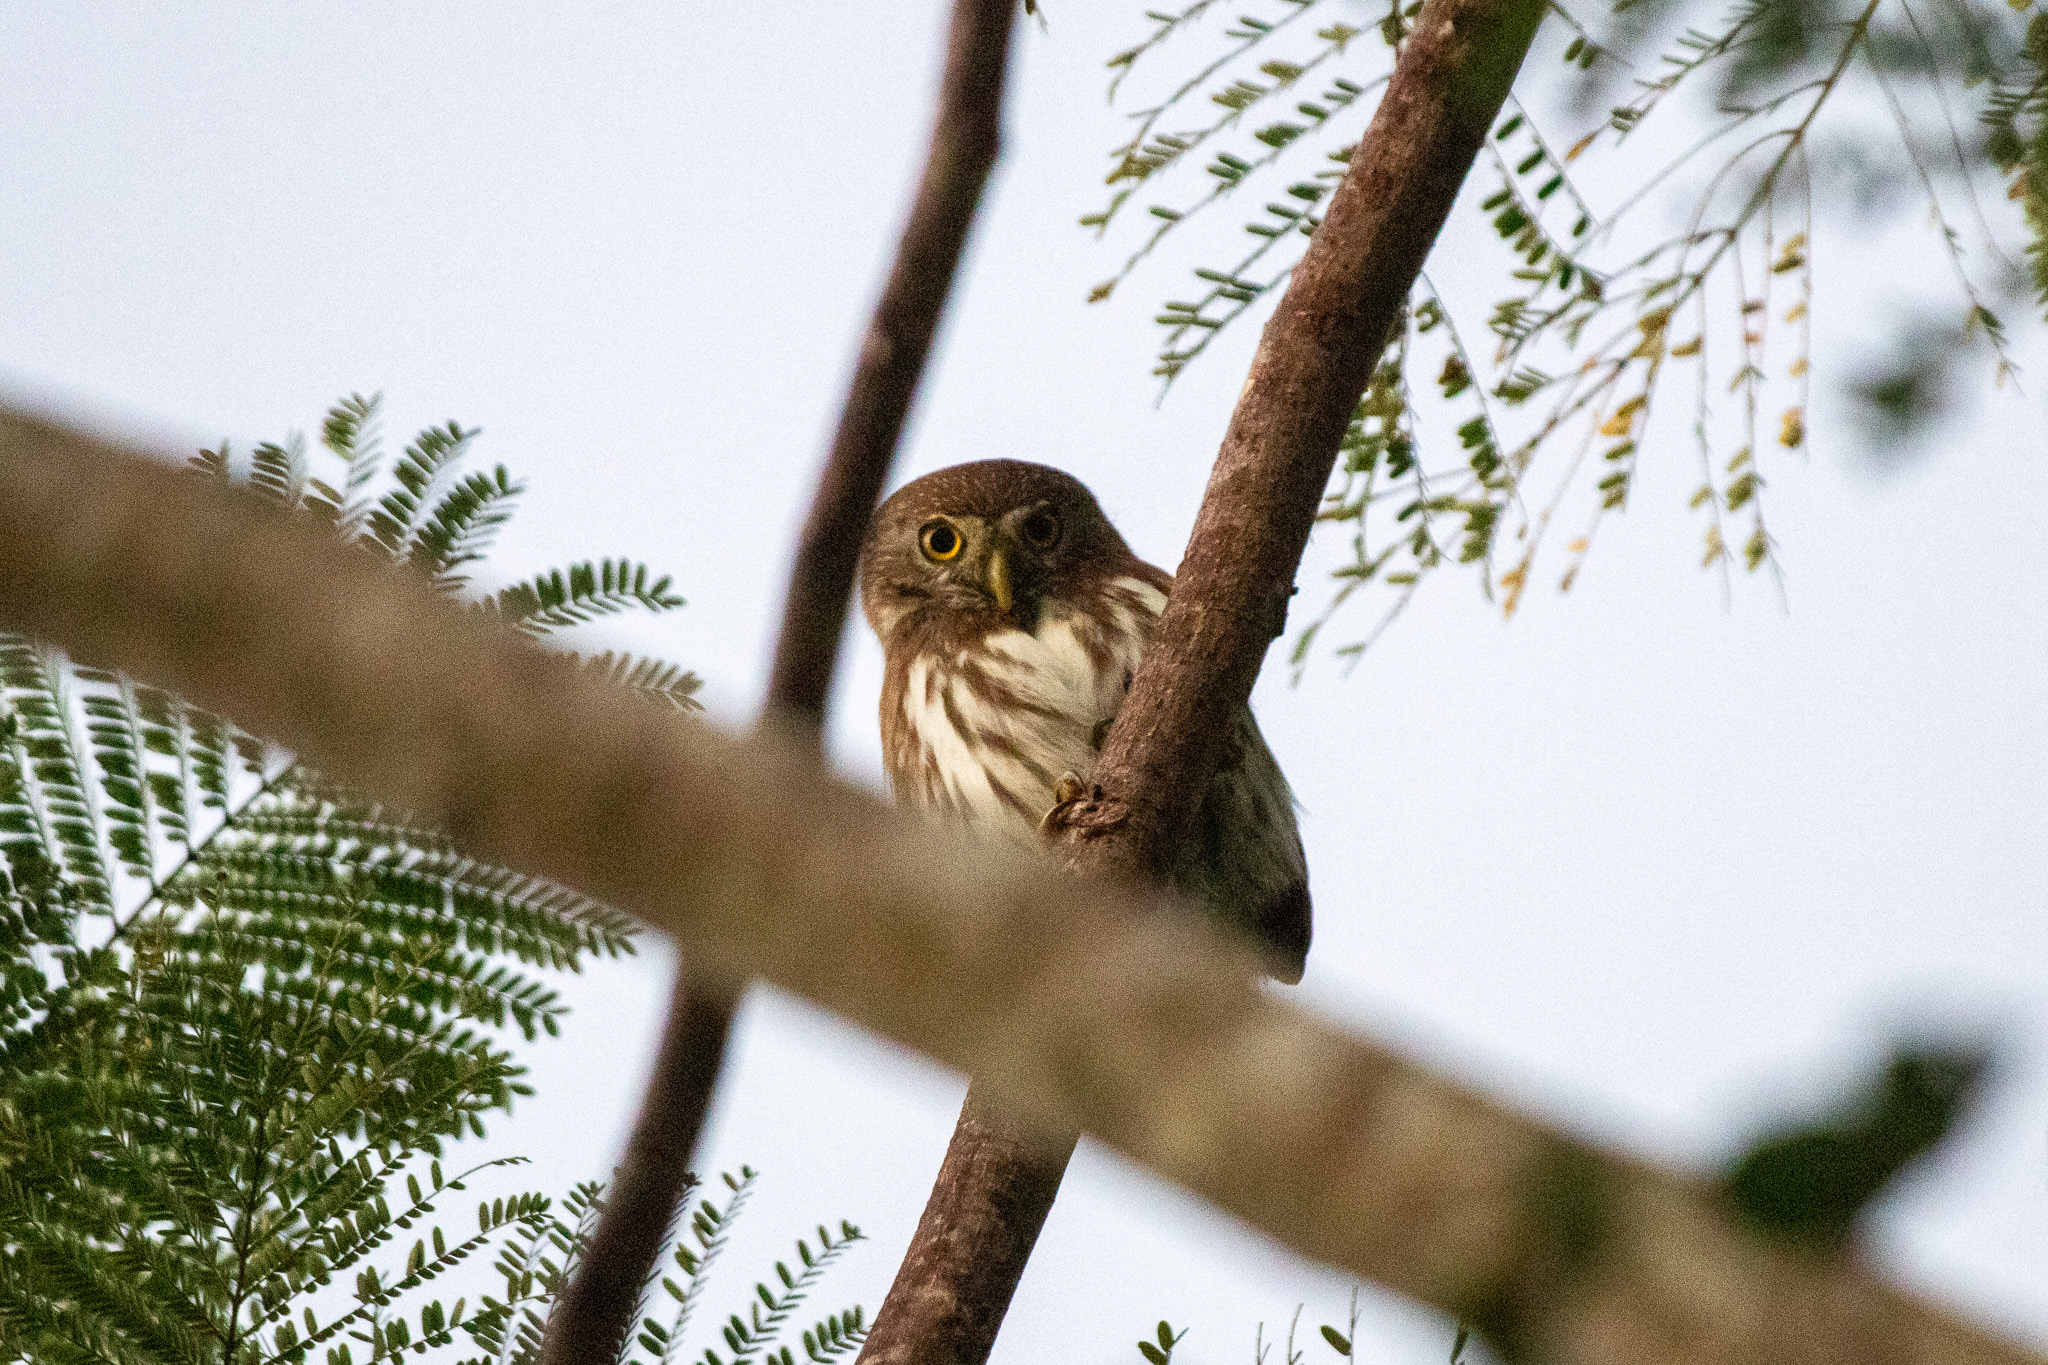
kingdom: Animalia
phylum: Chordata
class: Aves
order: Strigiformes
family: Strigidae
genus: Glaucidium
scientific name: Glaucidium brasilianum
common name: Ferruginous pygmy-owl
